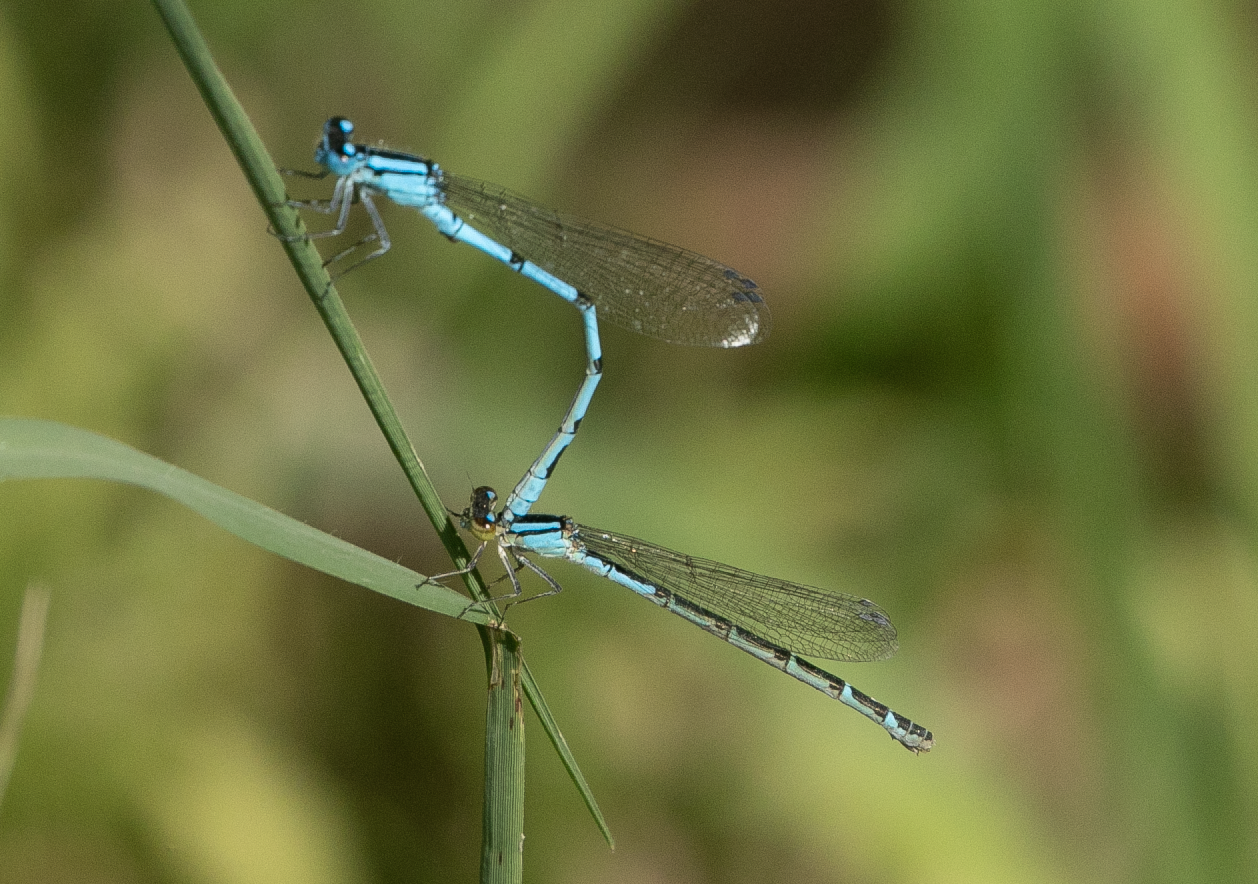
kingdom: Animalia
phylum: Arthropoda
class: Insecta
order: Odonata
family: Coenagrionidae
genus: Enallagma
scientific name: Enallagma cyathigerum
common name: Common blue damselfly
